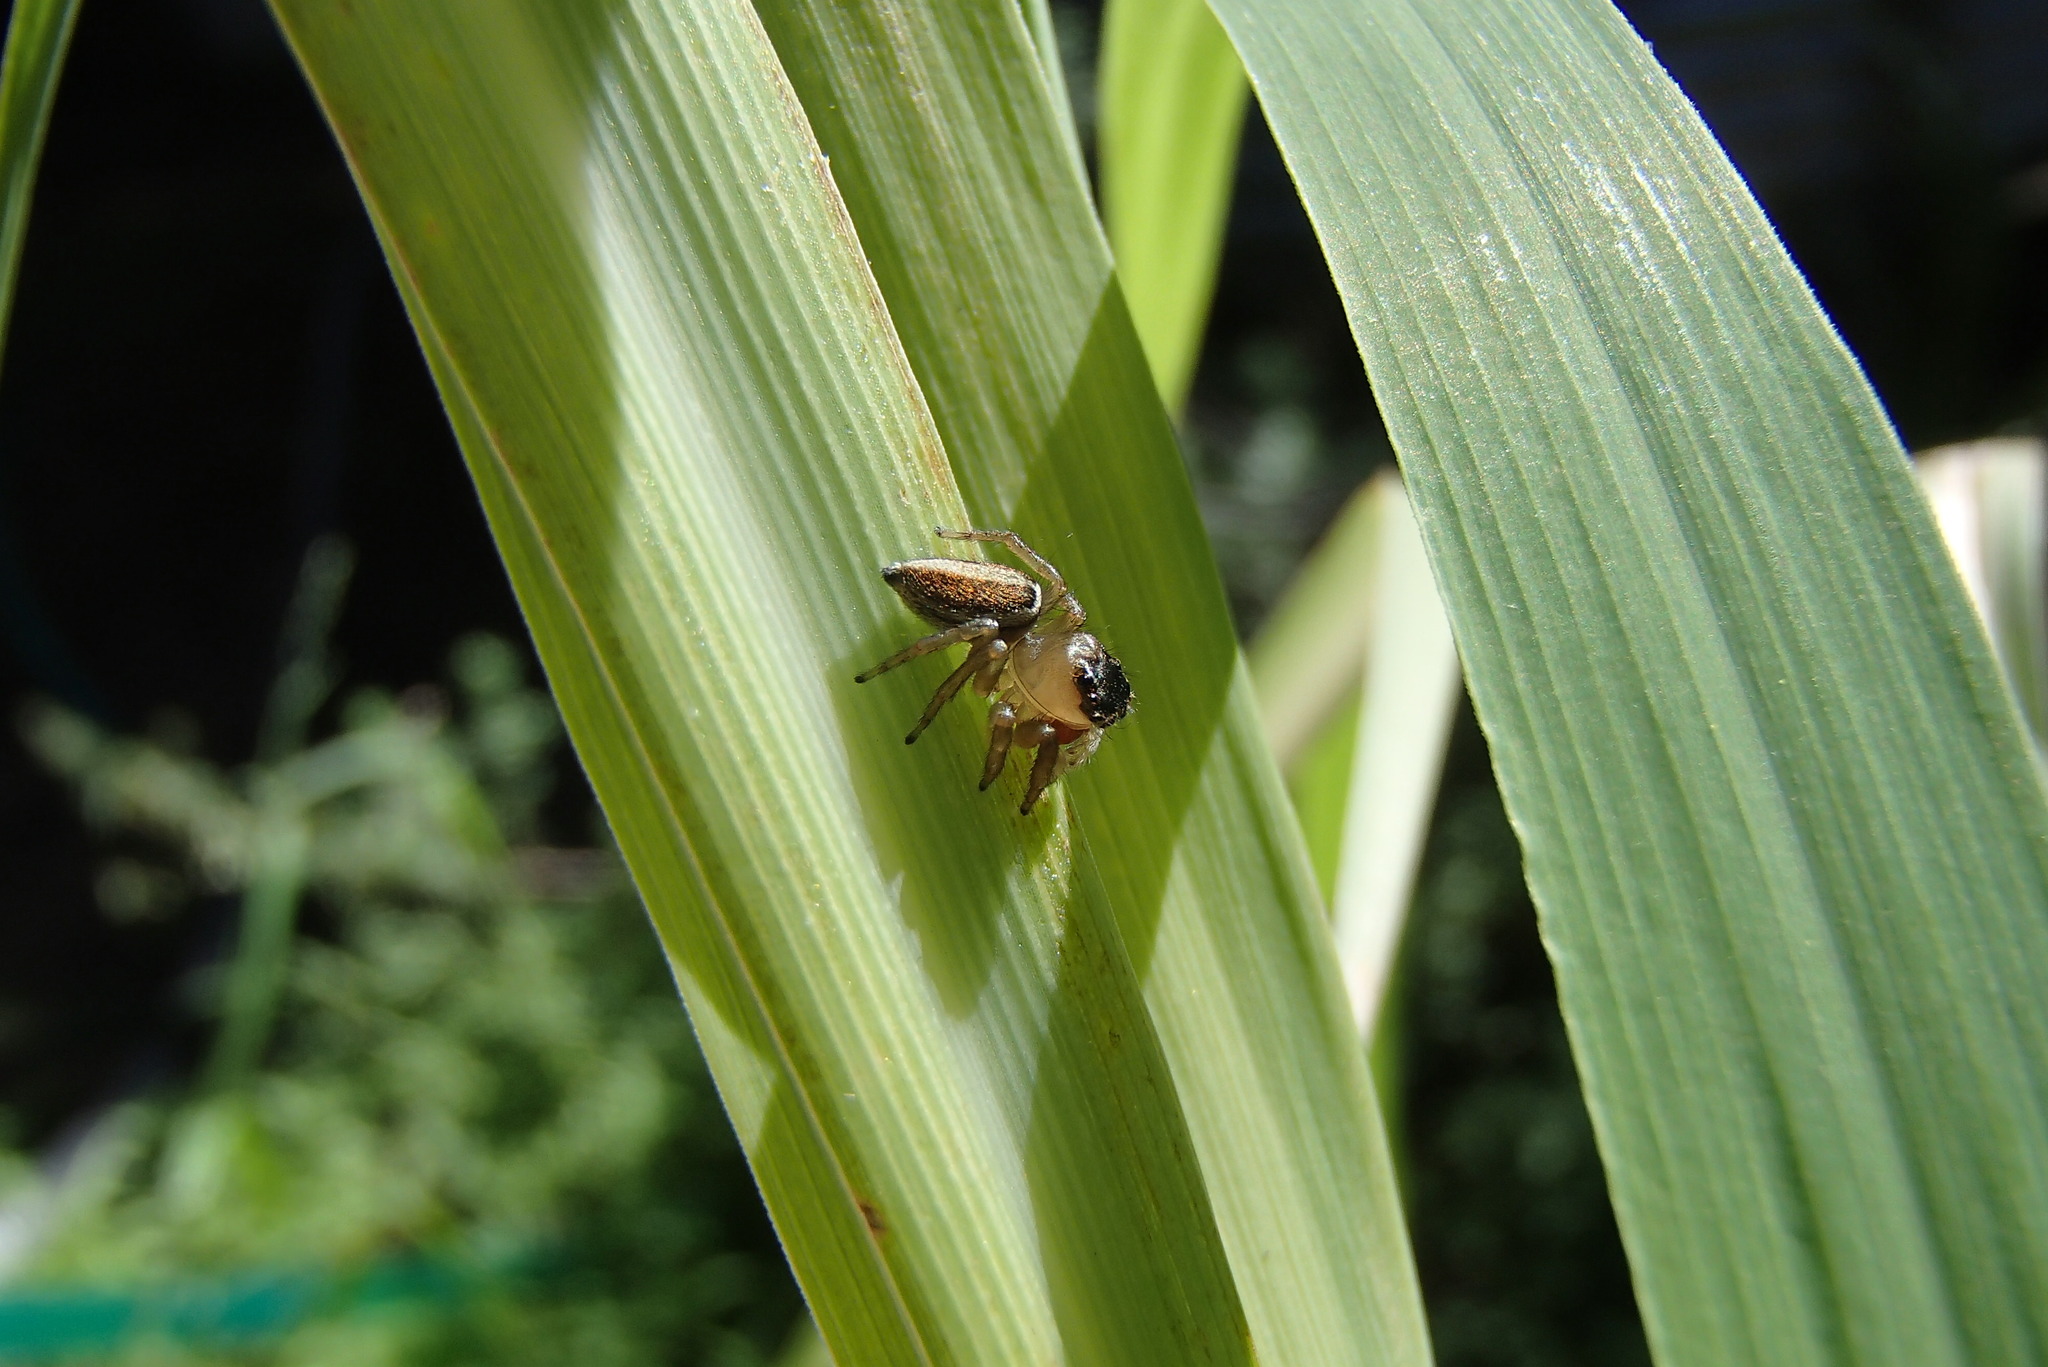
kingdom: Animalia
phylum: Arthropoda
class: Arachnida
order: Araneae
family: Salticidae
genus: Maratus
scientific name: Maratus scutulatus
